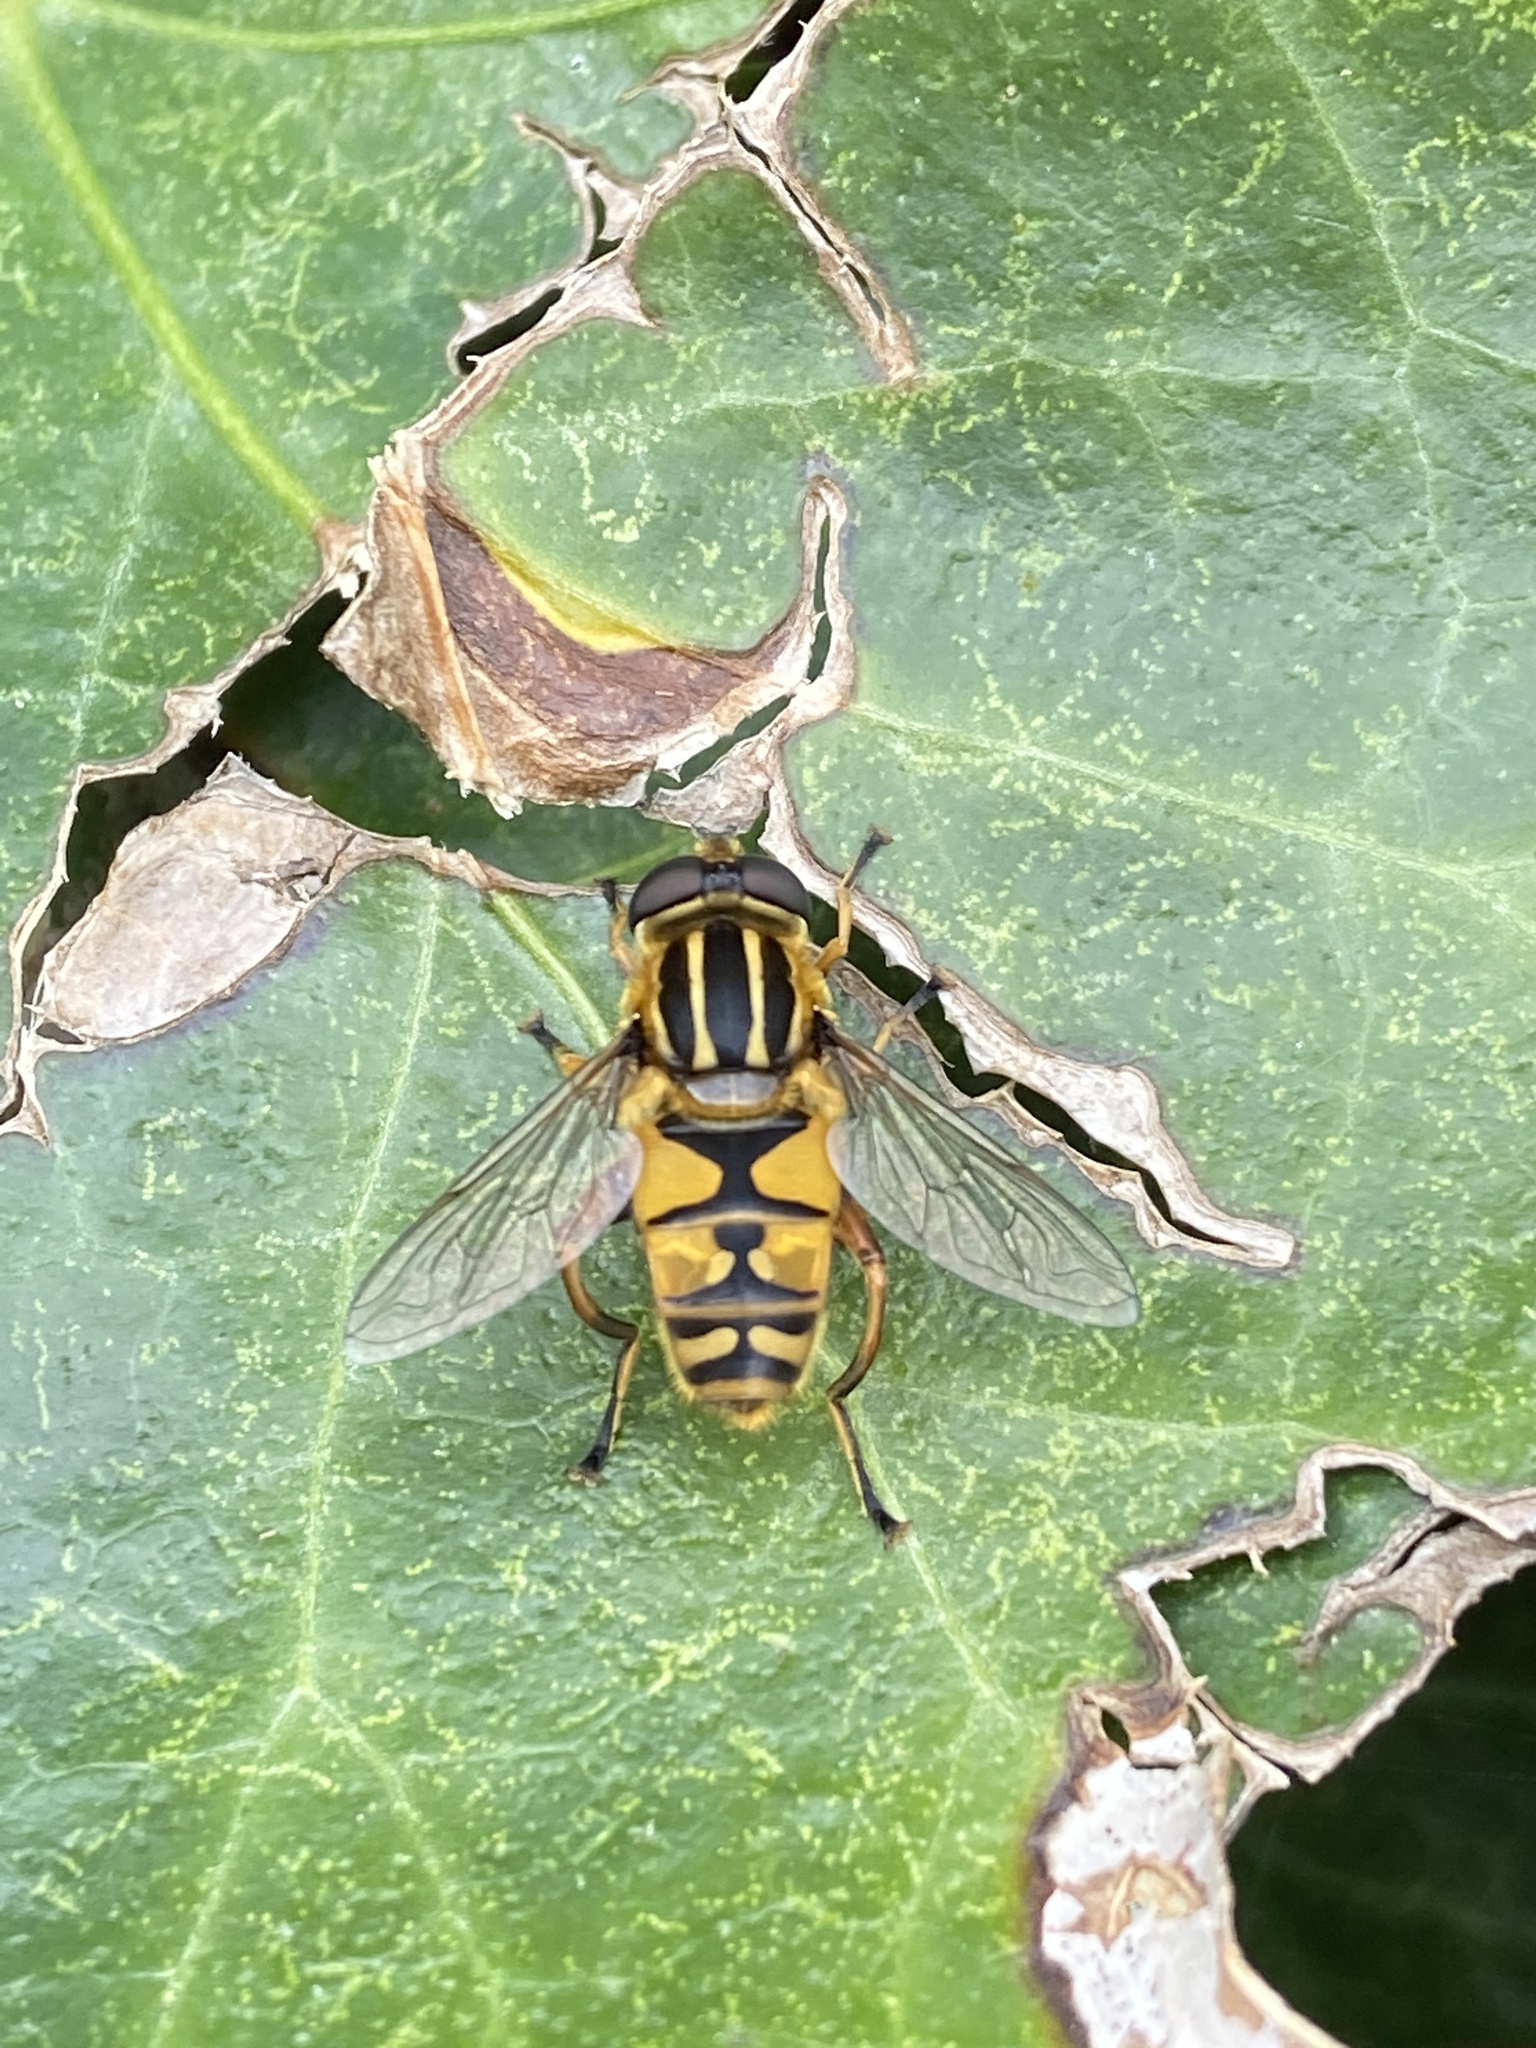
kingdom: Animalia
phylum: Arthropoda
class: Insecta
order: Diptera
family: Syrphidae
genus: Helophilus
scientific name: Helophilus pendulus
